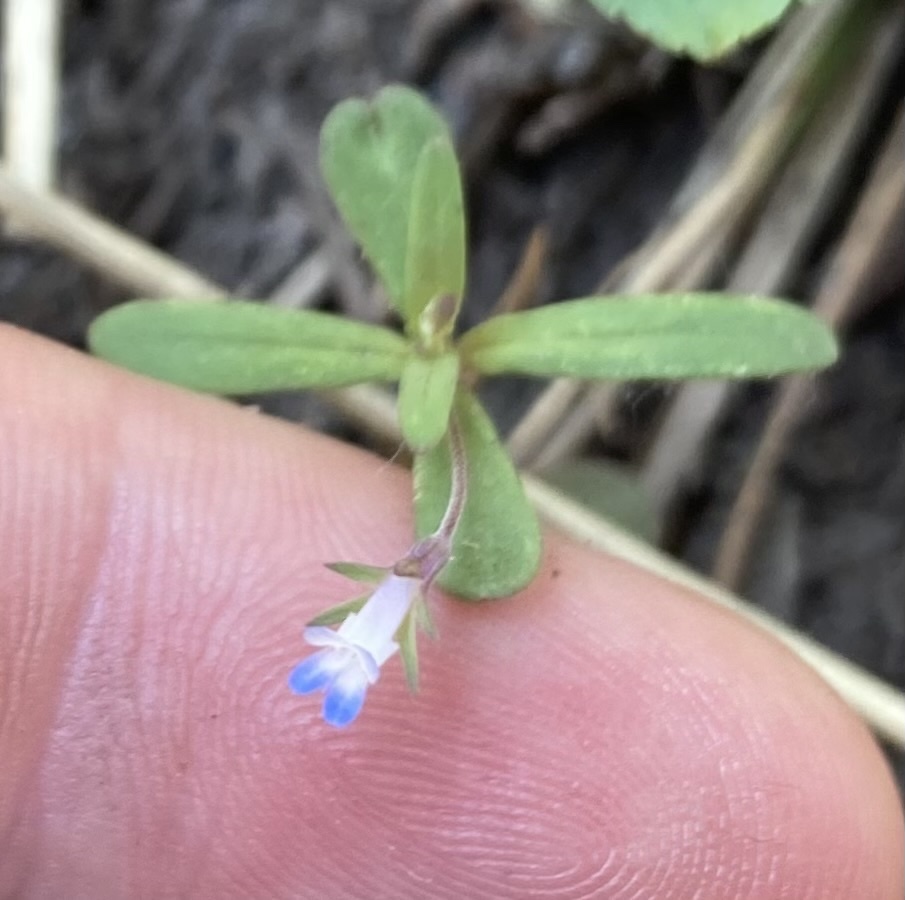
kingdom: Plantae
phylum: Tracheophyta
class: Magnoliopsida
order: Lamiales
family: Plantaginaceae
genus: Collinsia
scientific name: Collinsia parviflora
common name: Blue-lips
